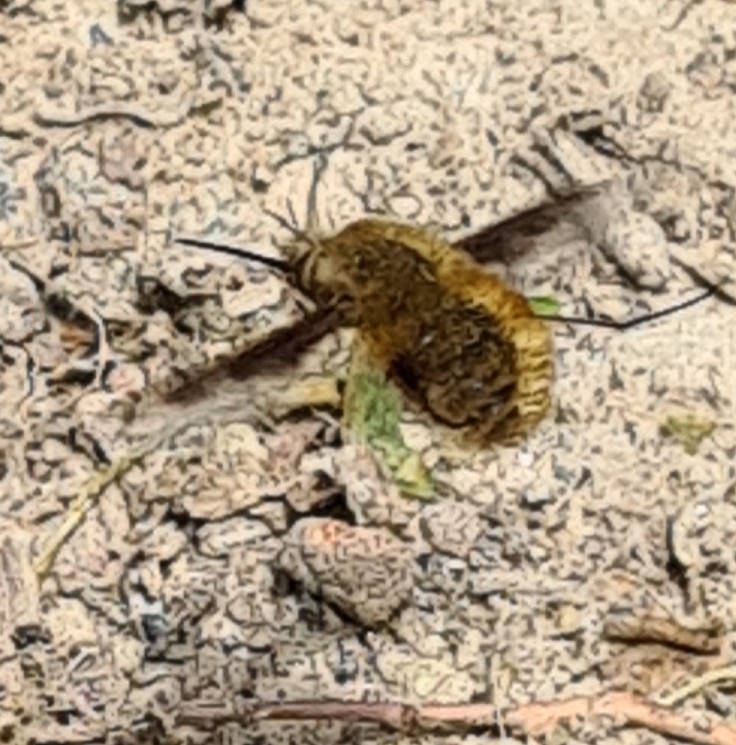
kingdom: Animalia
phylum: Arthropoda
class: Insecta
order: Diptera
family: Bombyliidae
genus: Bombylius
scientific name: Bombylius major
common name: Bee fly
